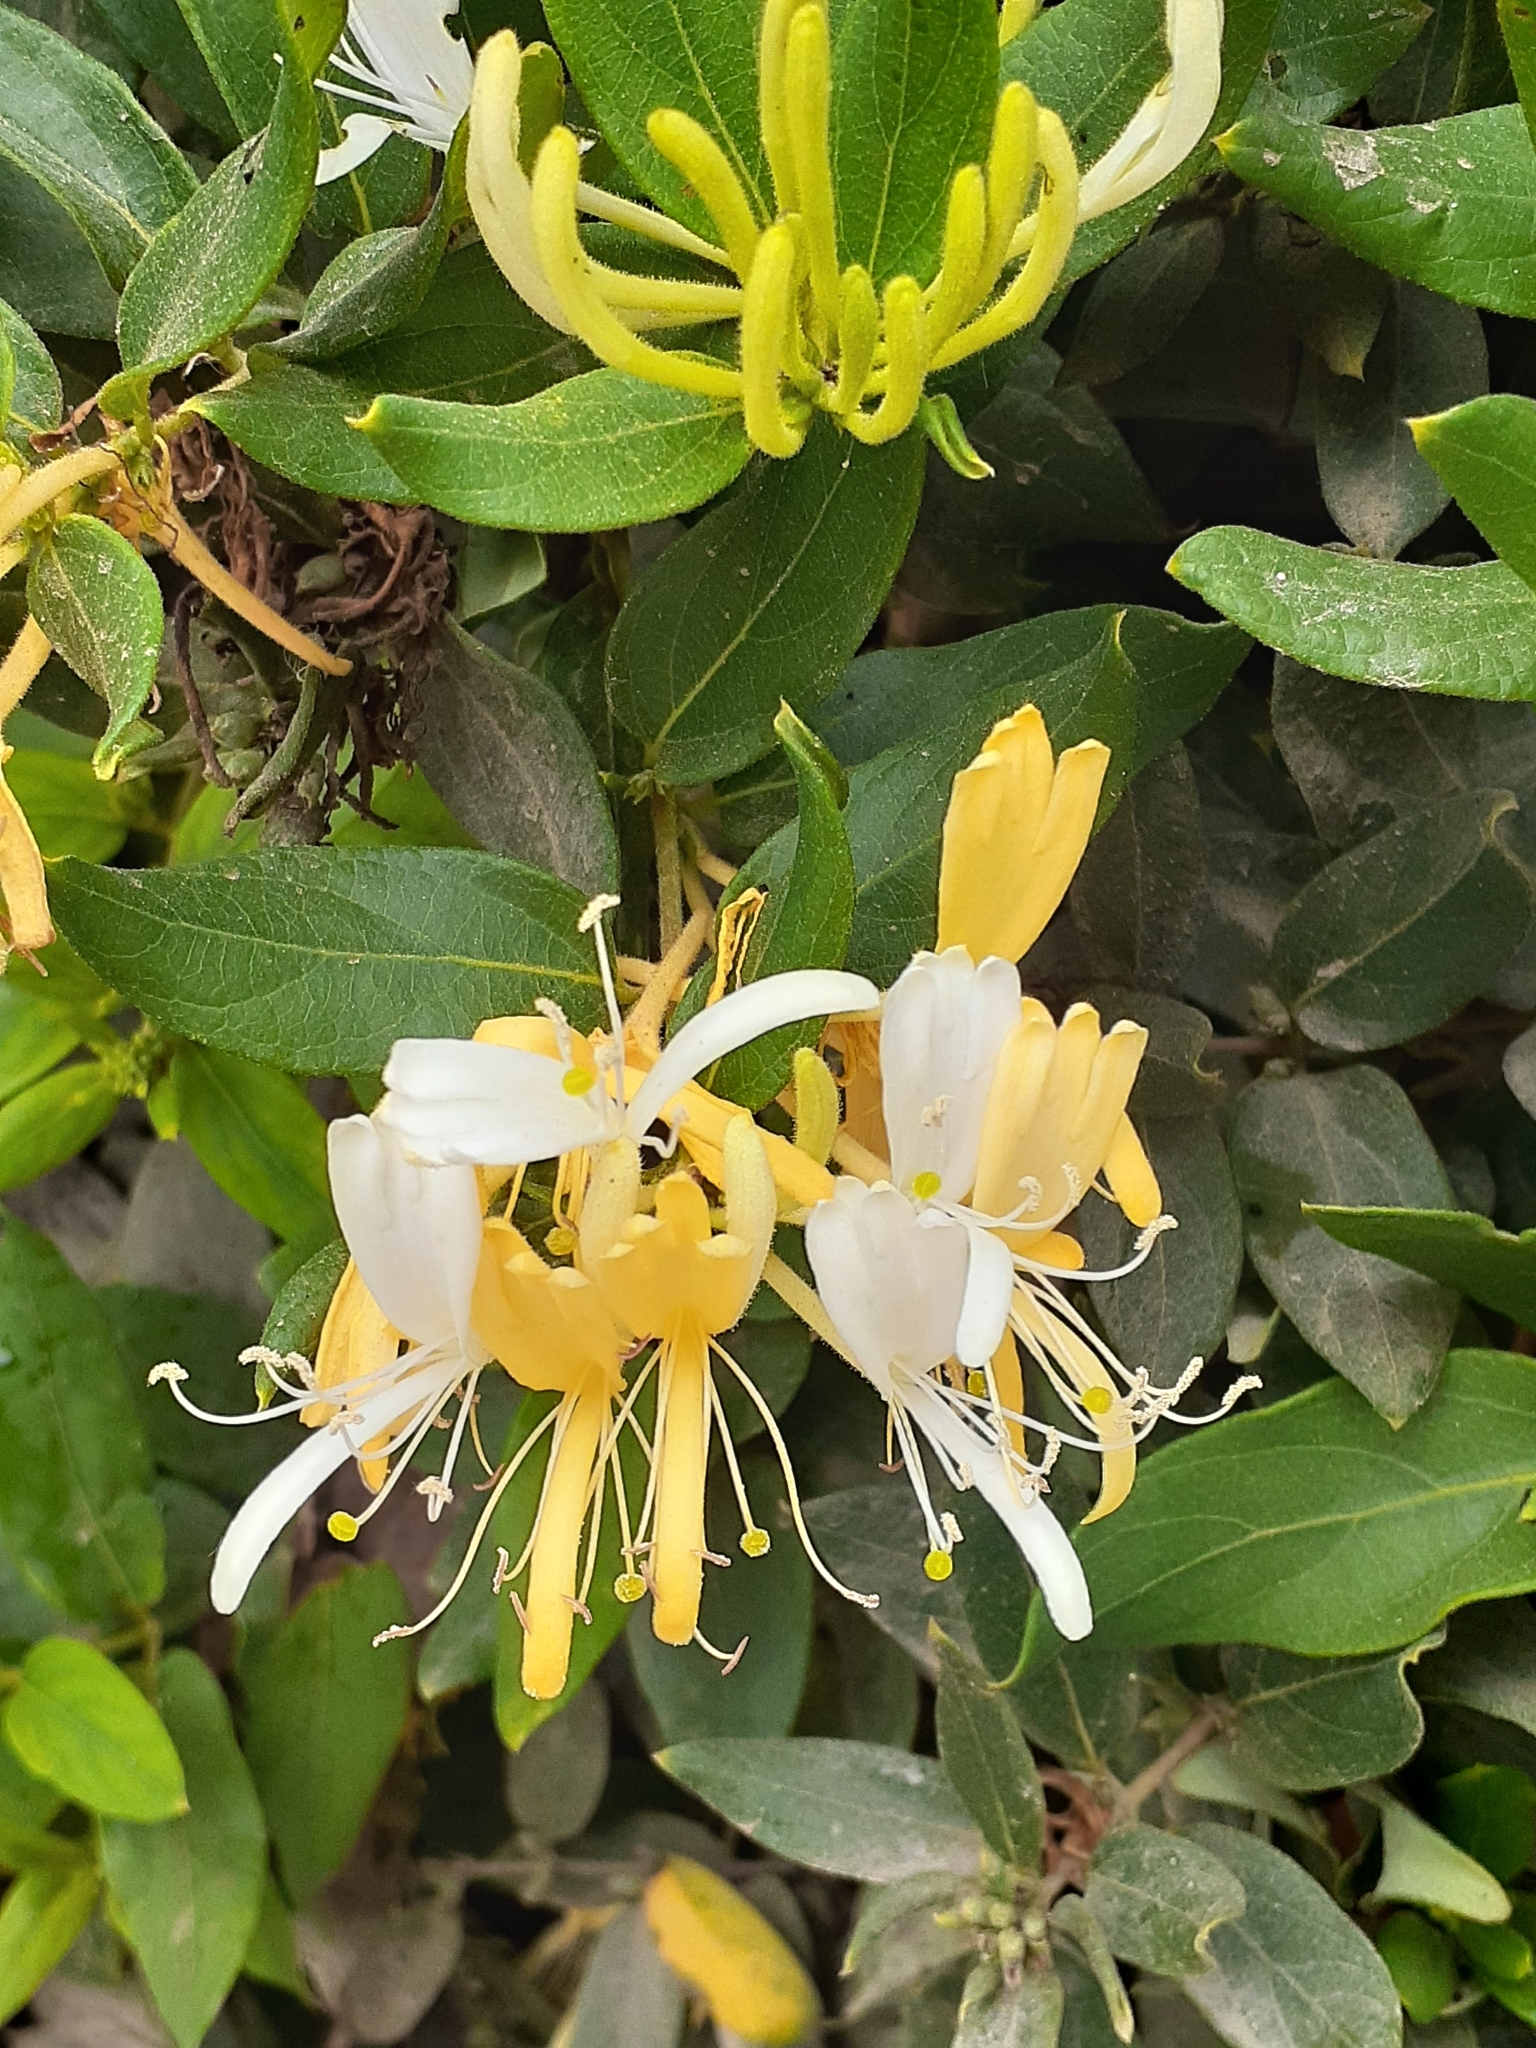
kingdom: Plantae
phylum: Tracheophyta
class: Magnoliopsida
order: Dipsacales
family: Caprifoliaceae
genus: Lonicera
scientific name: Lonicera japonica
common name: Japanese honeysuckle
